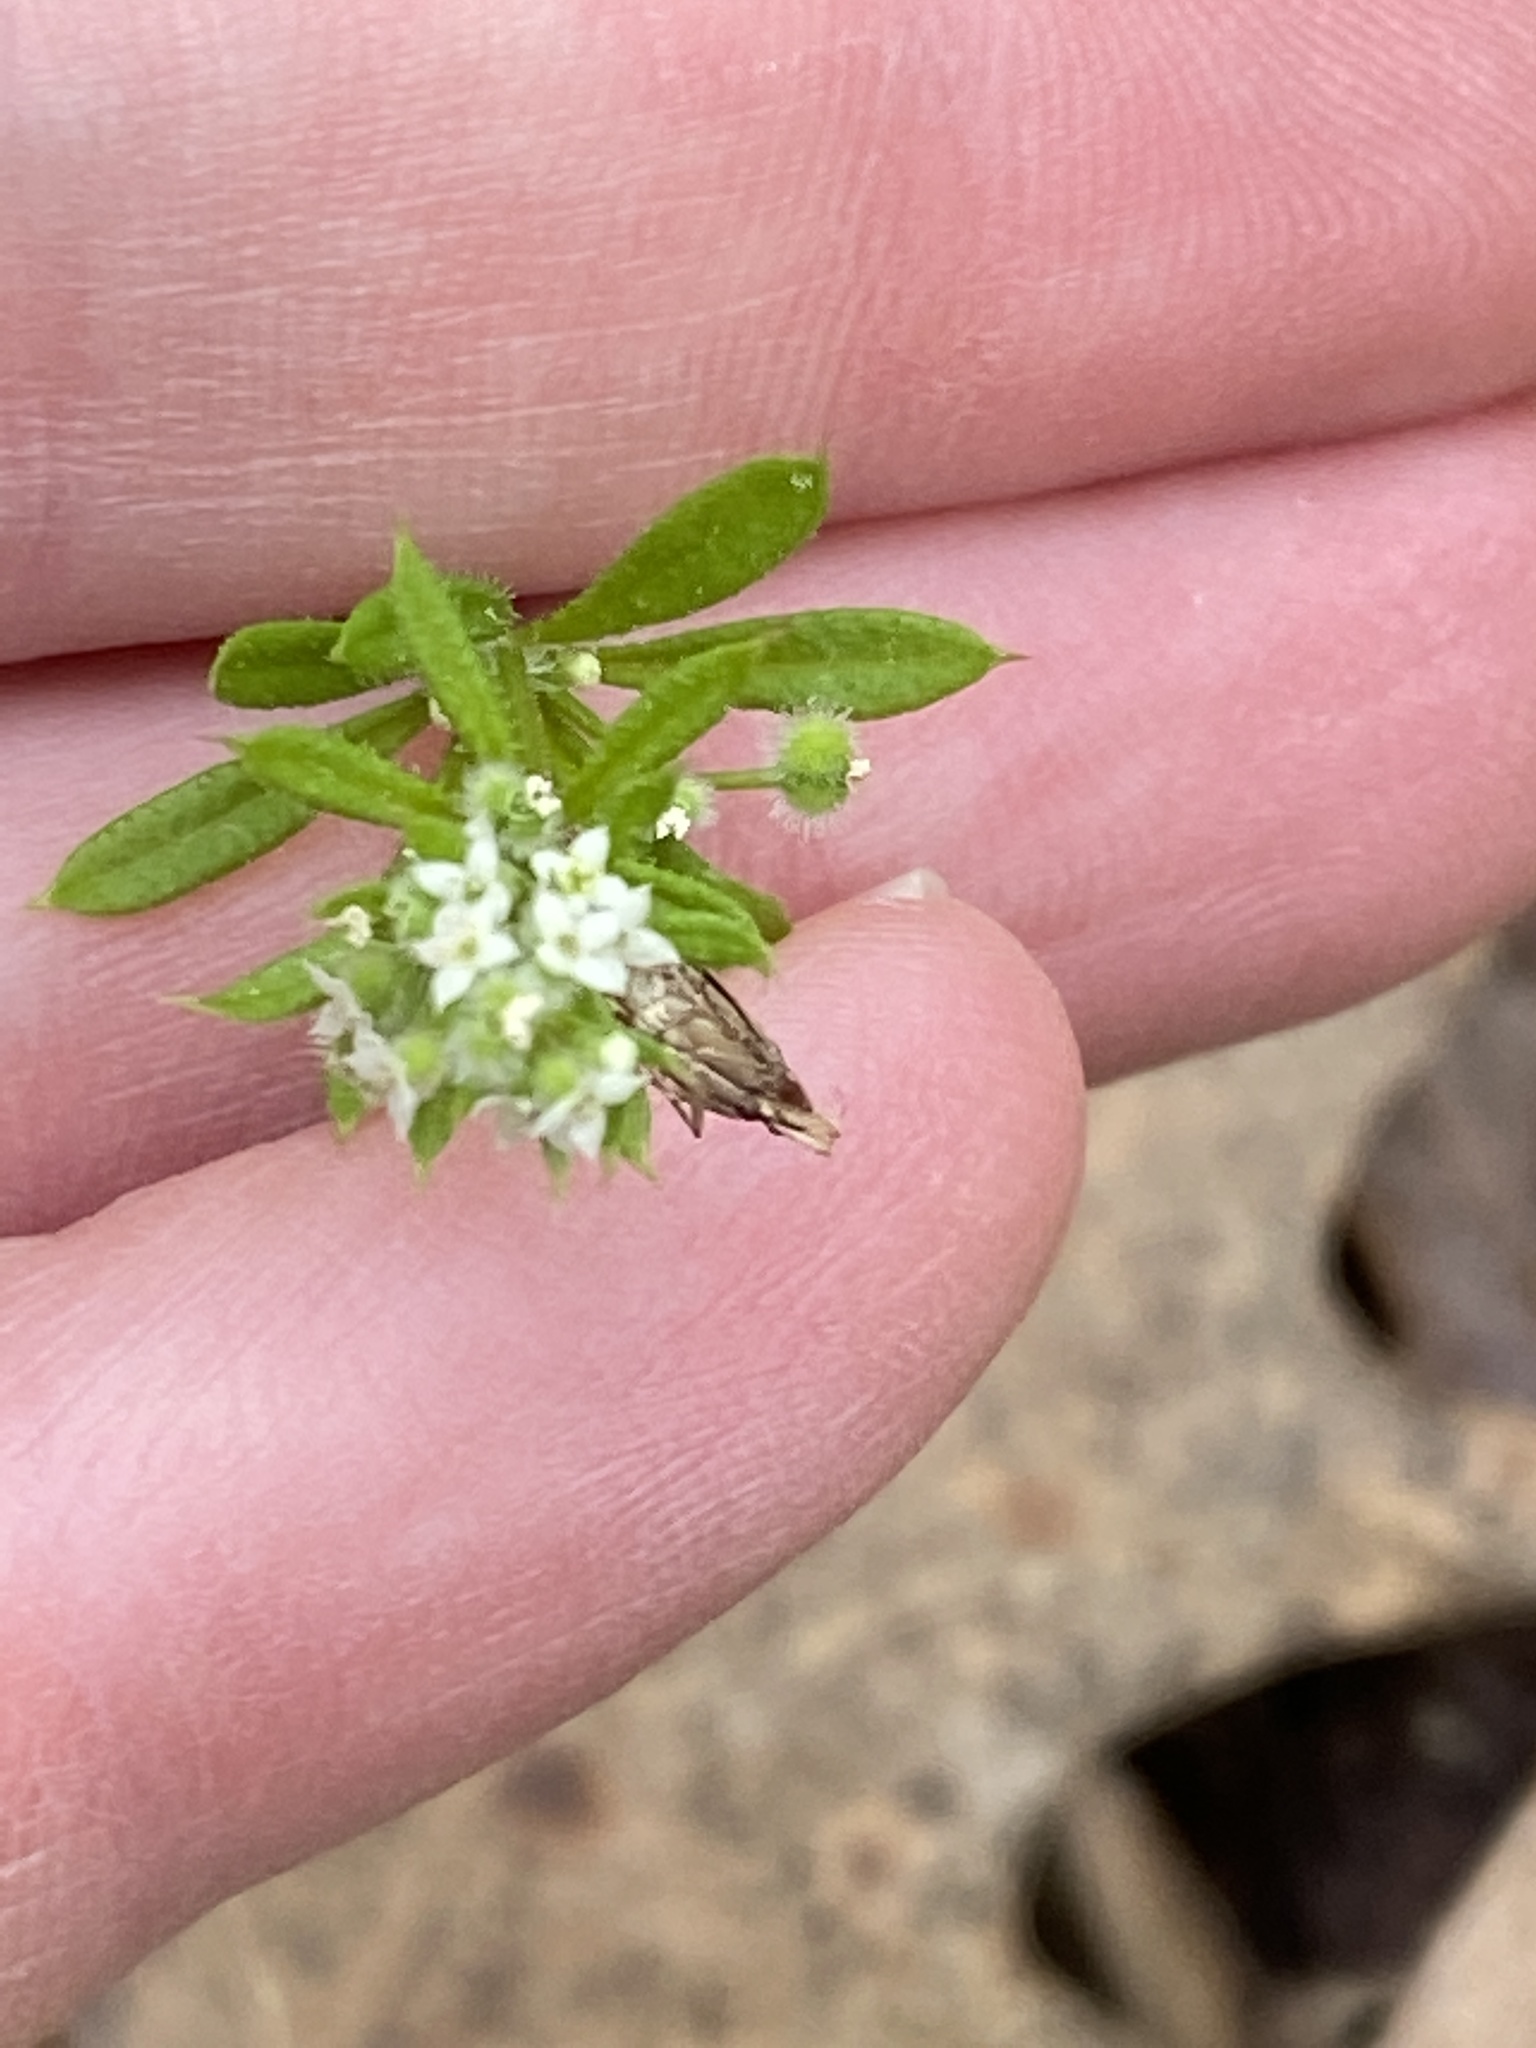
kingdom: Plantae
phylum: Tracheophyta
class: Magnoliopsida
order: Gentianales
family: Rubiaceae
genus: Galium
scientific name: Galium aparine
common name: Cleavers
